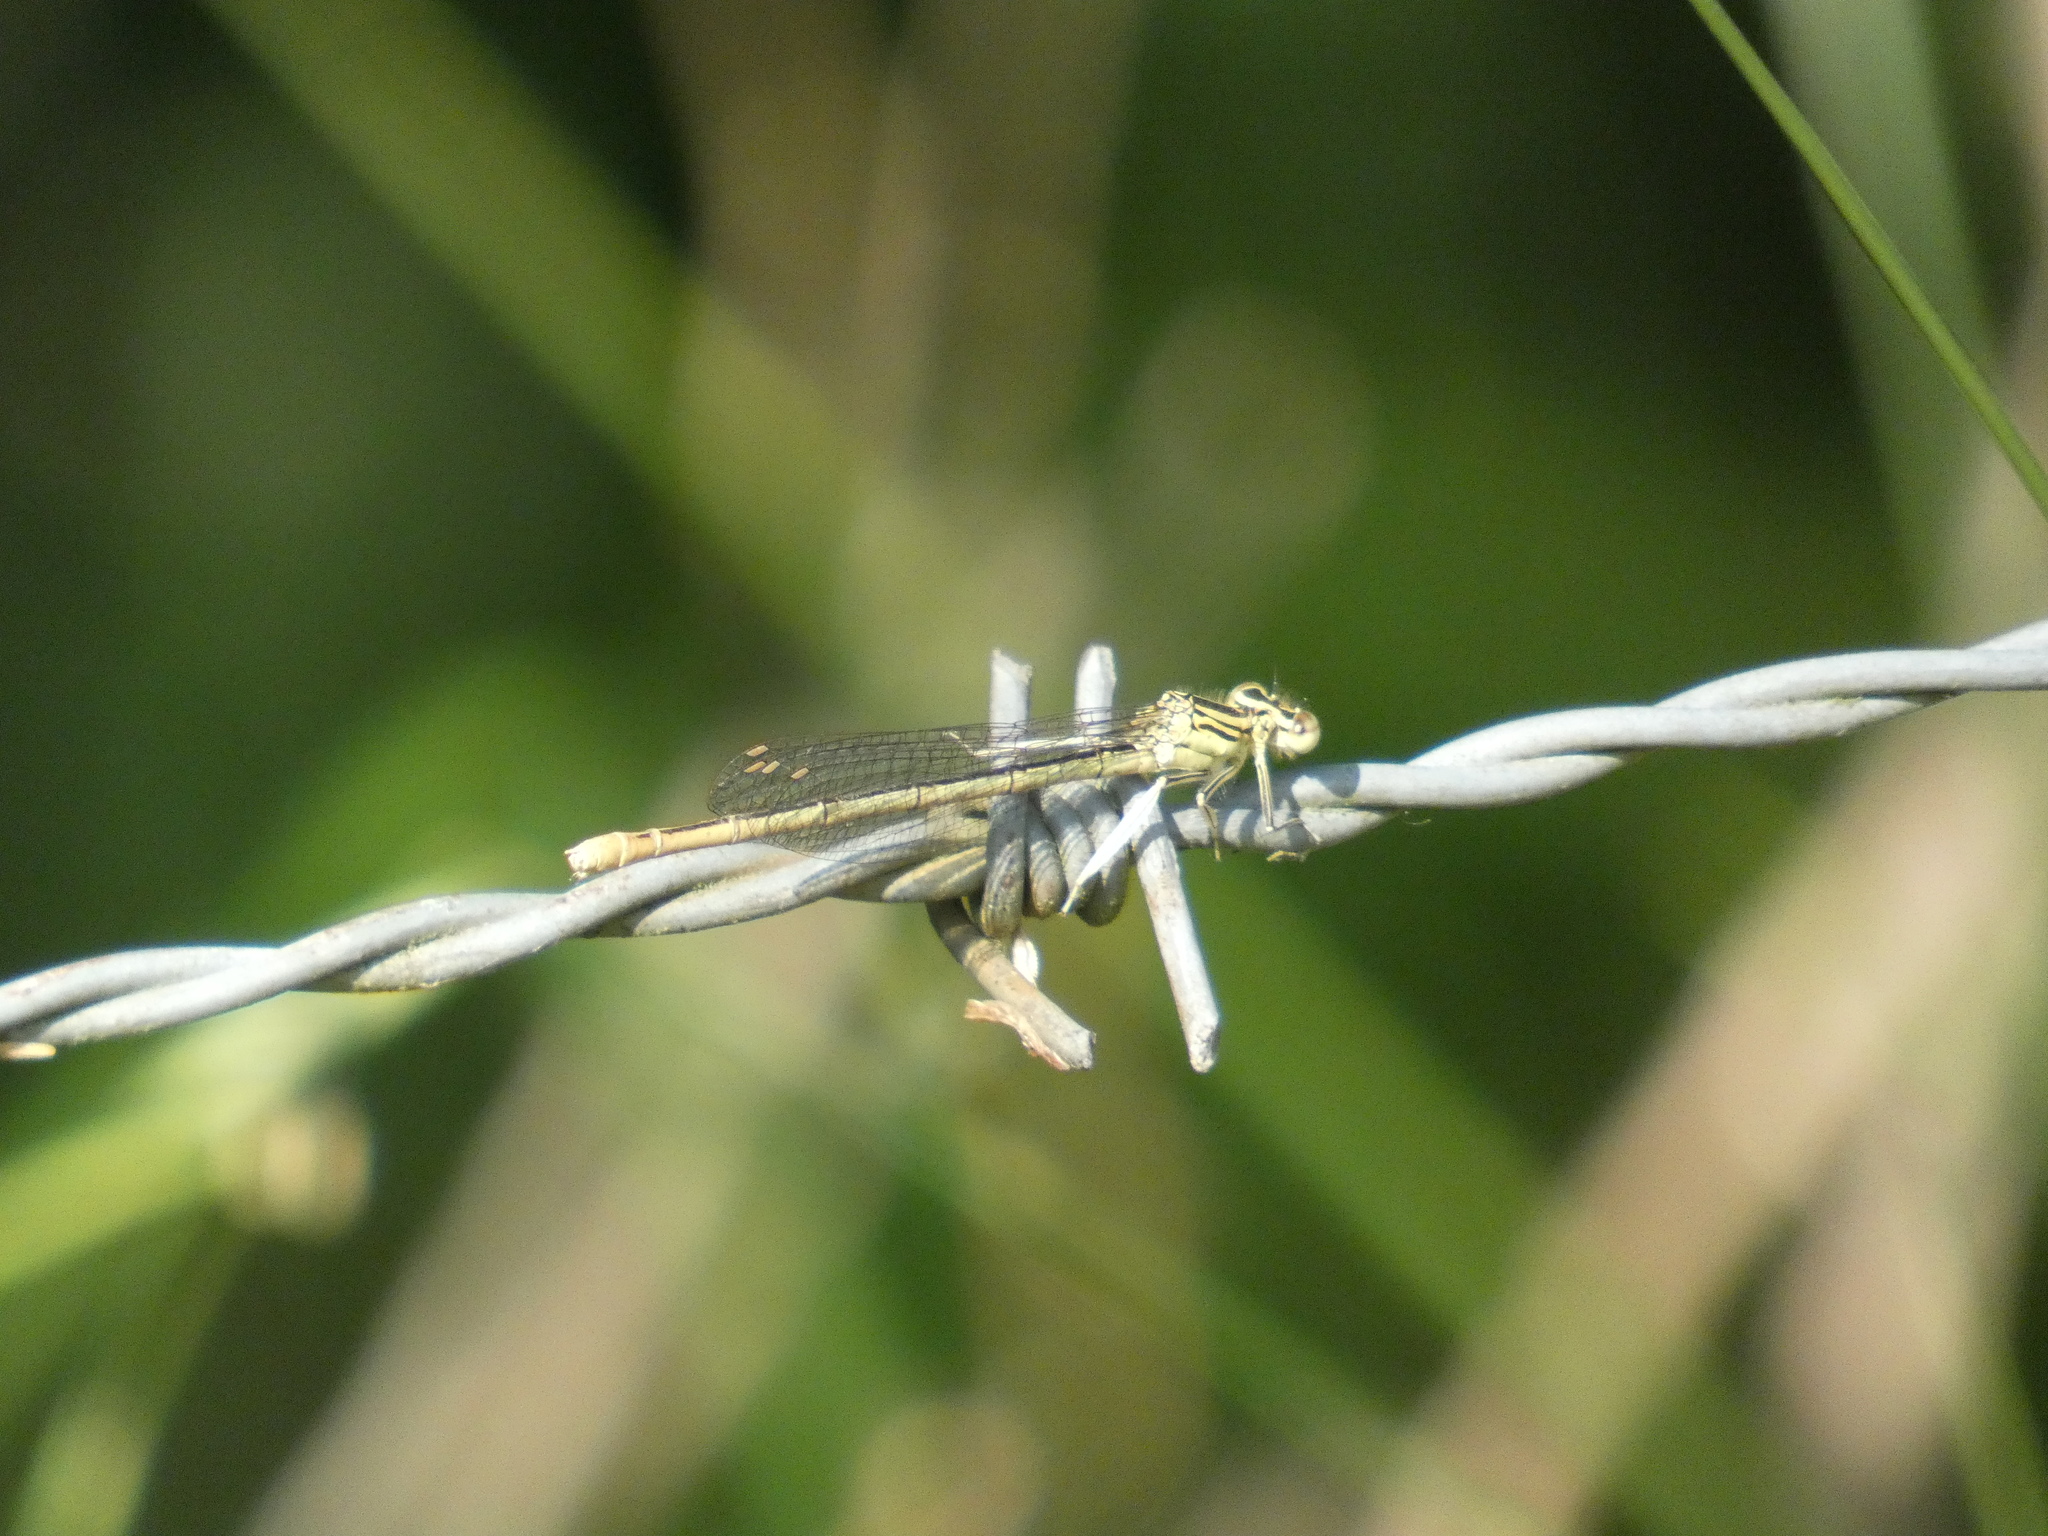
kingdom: Animalia
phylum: Arthropoda
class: Insecta
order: Odonata
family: Platycnemididae
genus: Platycnemis
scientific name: Platycnemis pennipes
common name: White-legged damselfly
